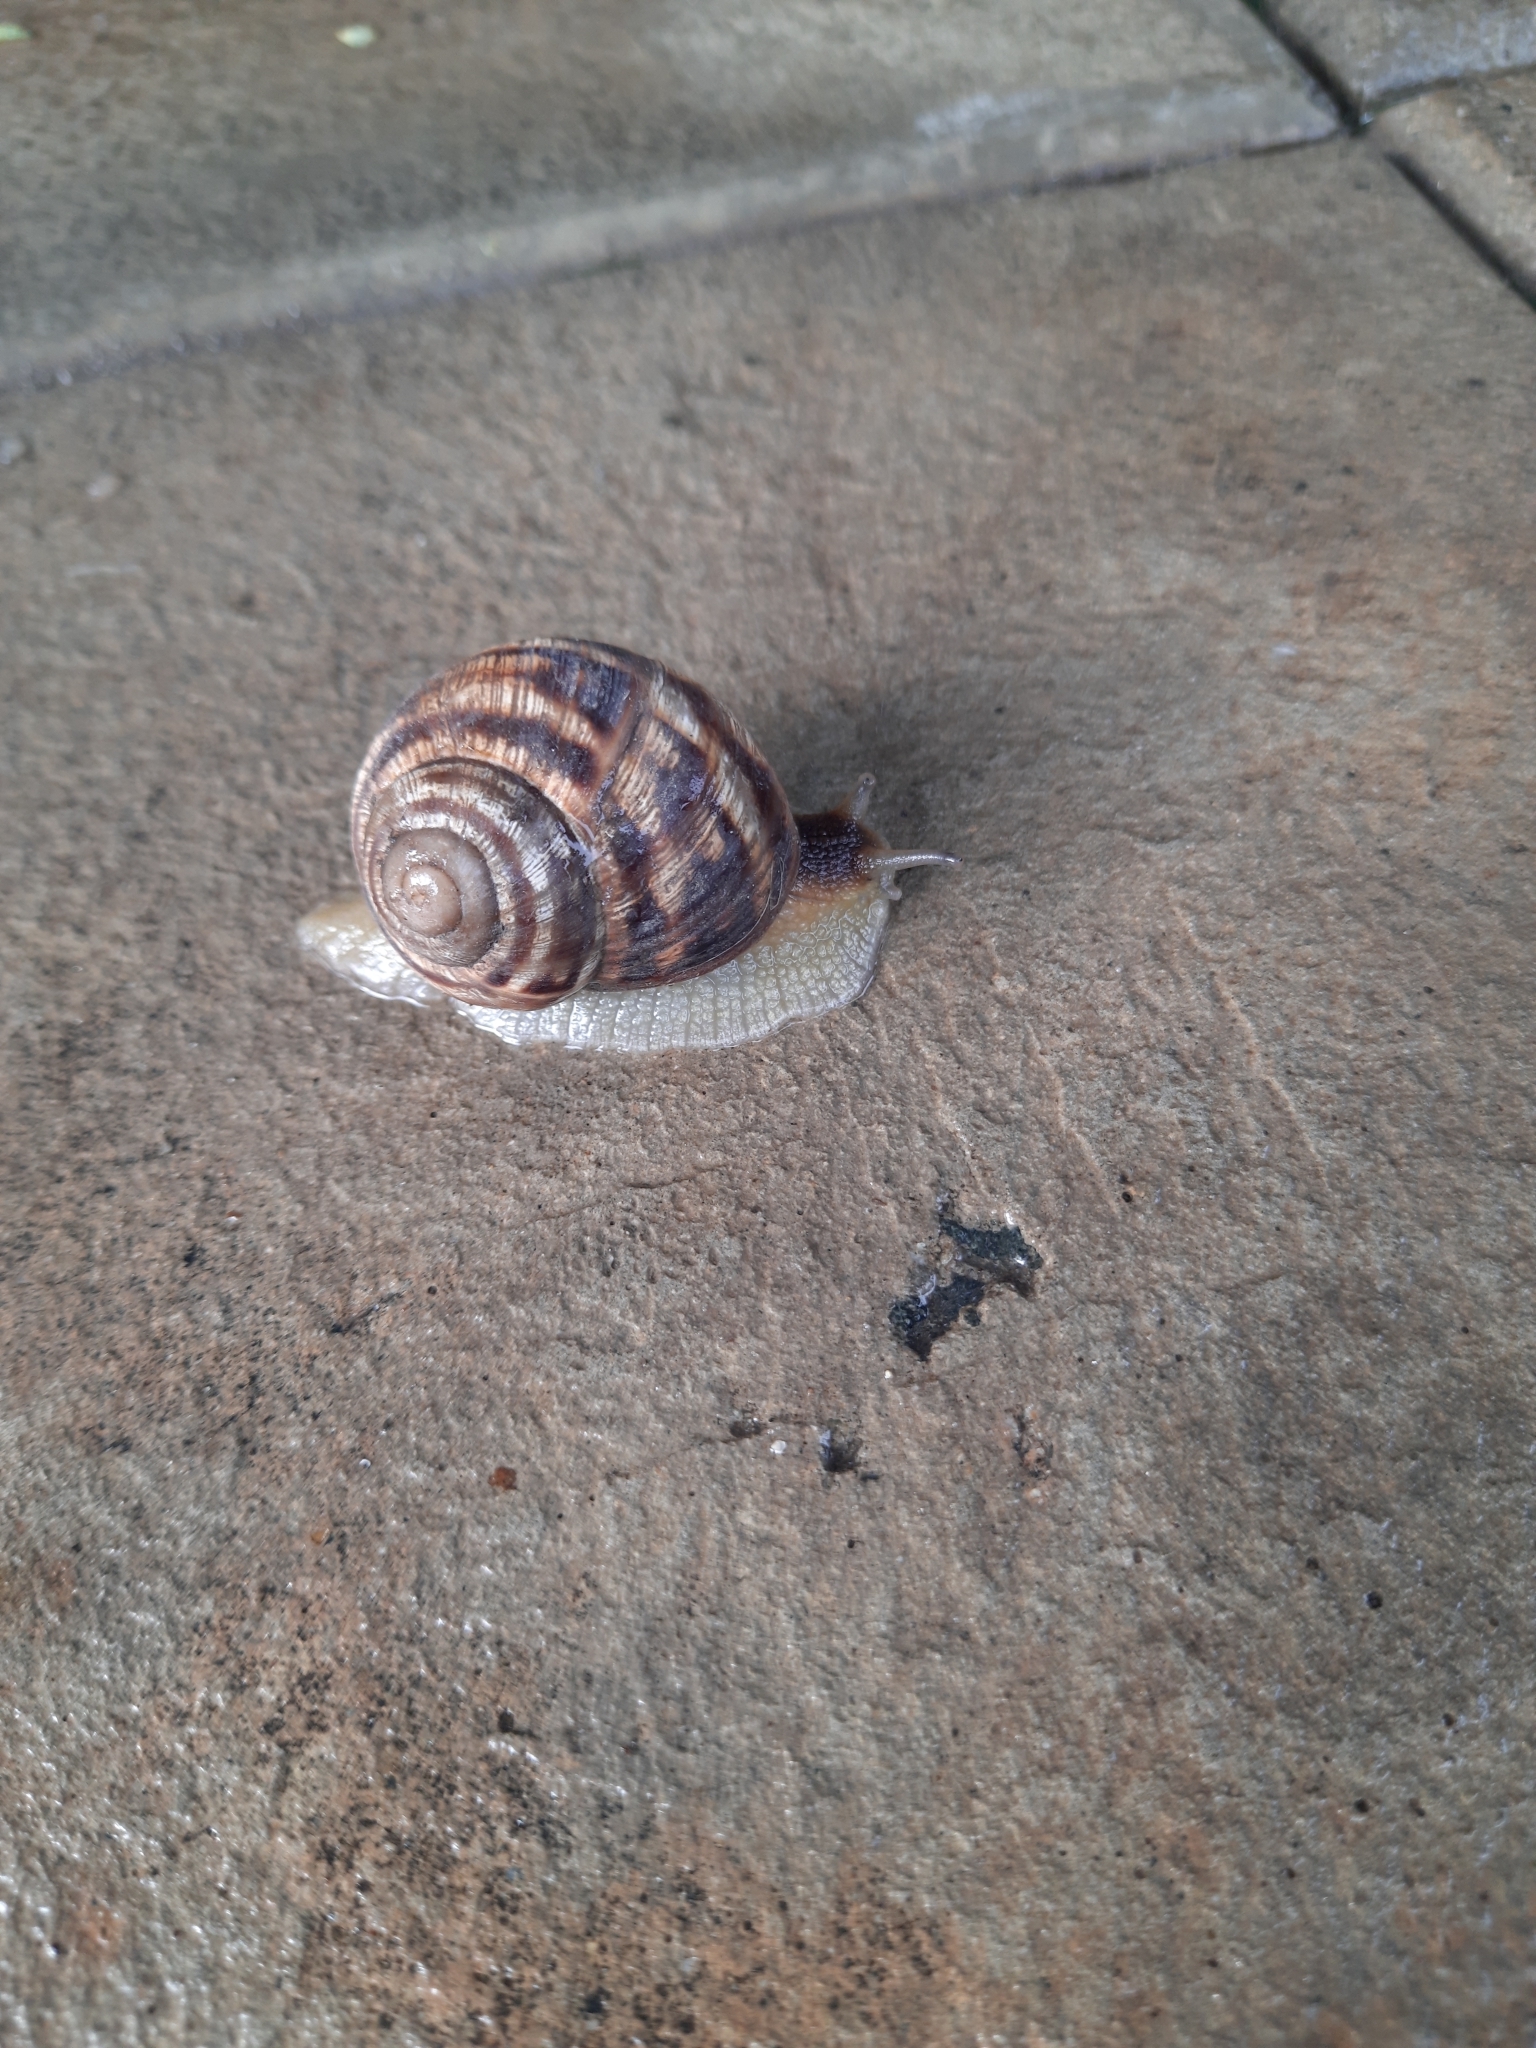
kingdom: Animalia
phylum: Mollusca
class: Gastropoda
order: Stylommatophora
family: Helicidae
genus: Helix
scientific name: Helix albescens
